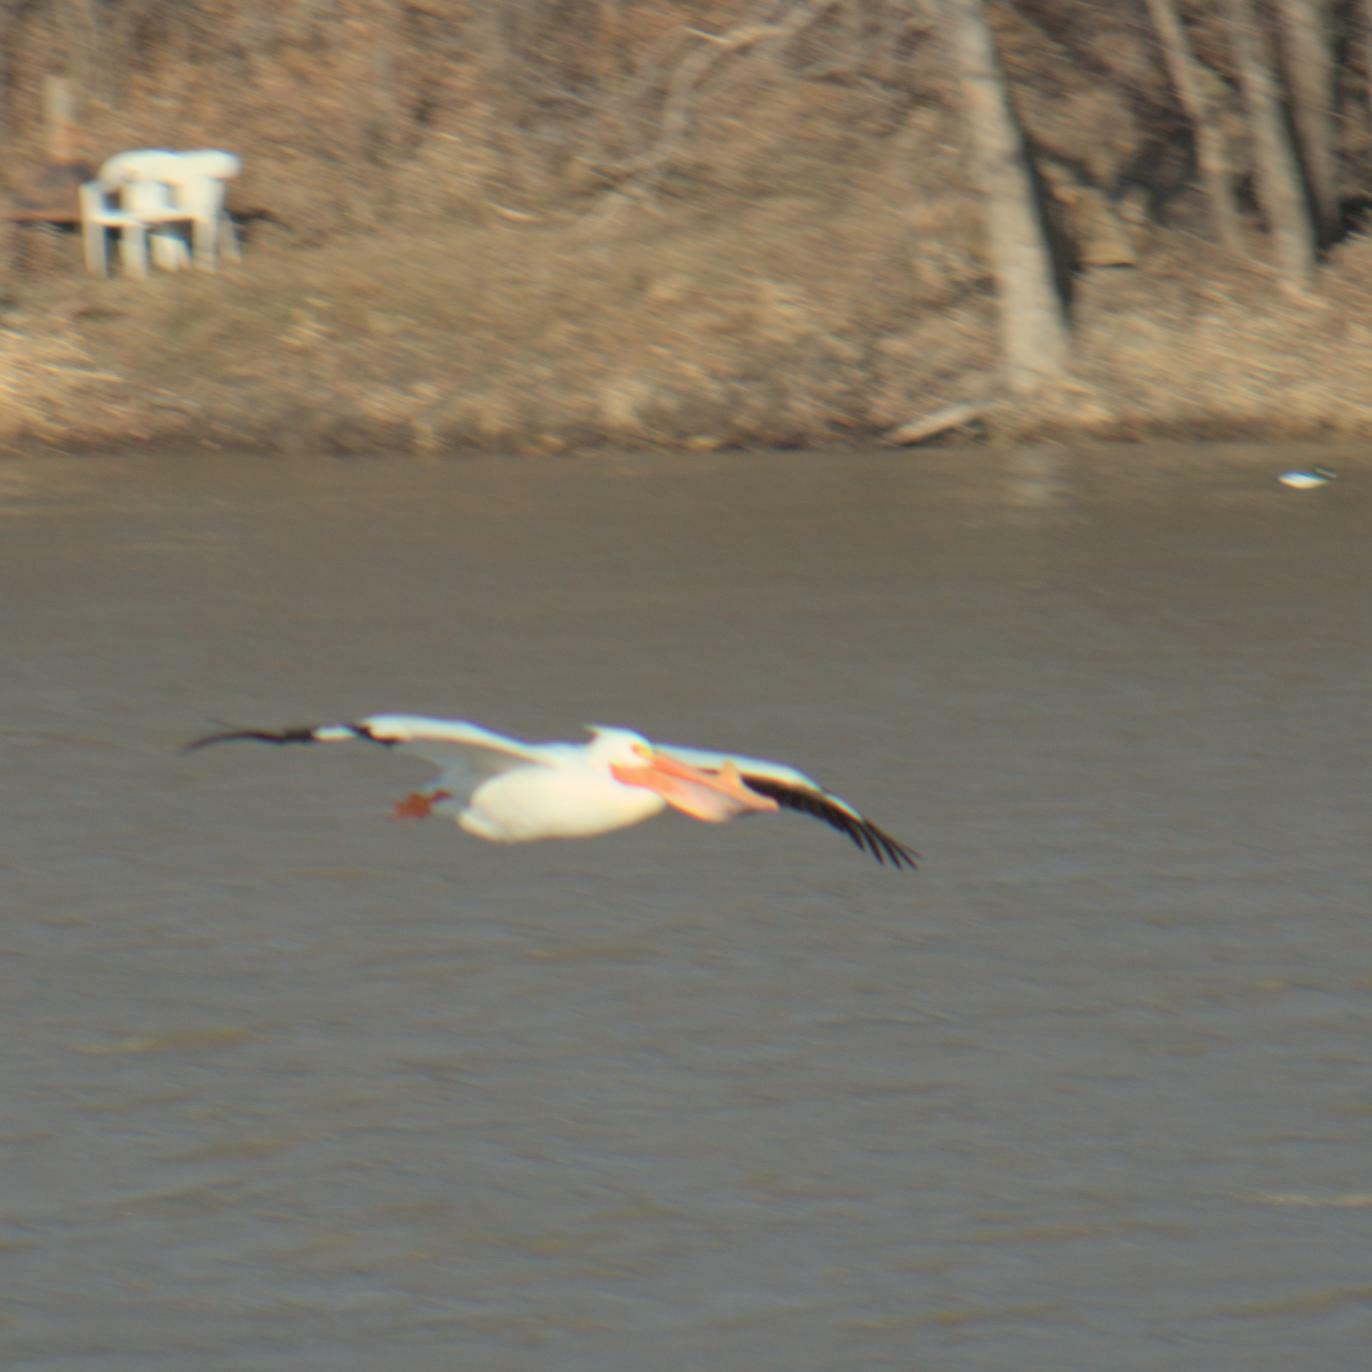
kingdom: Animalia
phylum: Chordata
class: Aves
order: Pelecaniformes
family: Pelecanidae
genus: Pelecanus
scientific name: Pelecanus erythrorhynchos
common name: American white pelican
